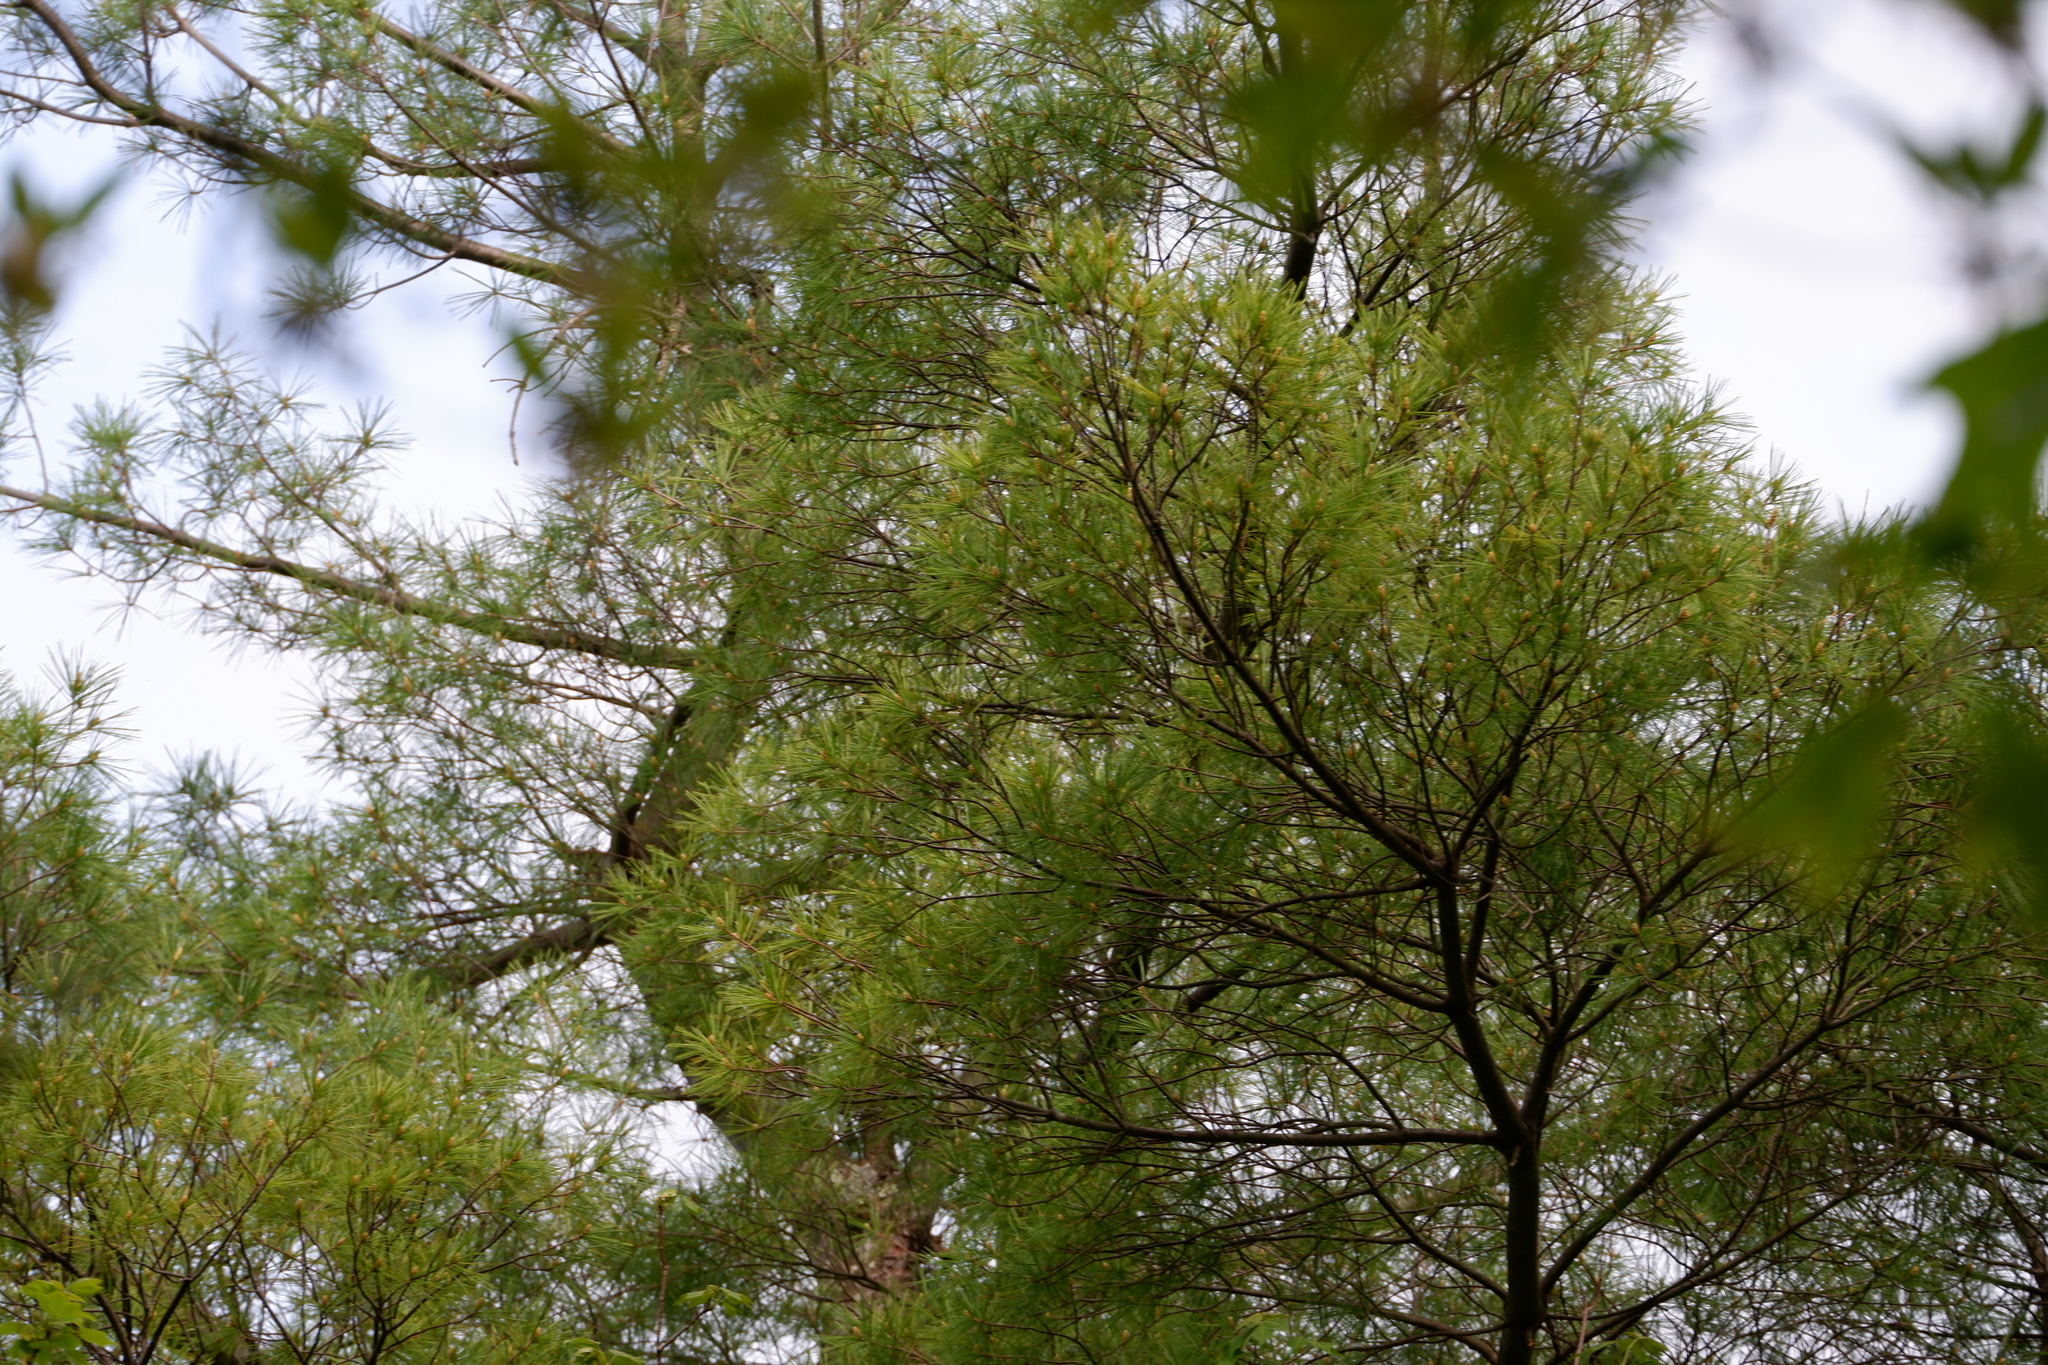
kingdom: Plantae
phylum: Tracheophyta
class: Pinopsida
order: Pinales
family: Pinaceae
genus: Pinus
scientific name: Pinus strobus
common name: Weymouth pine
